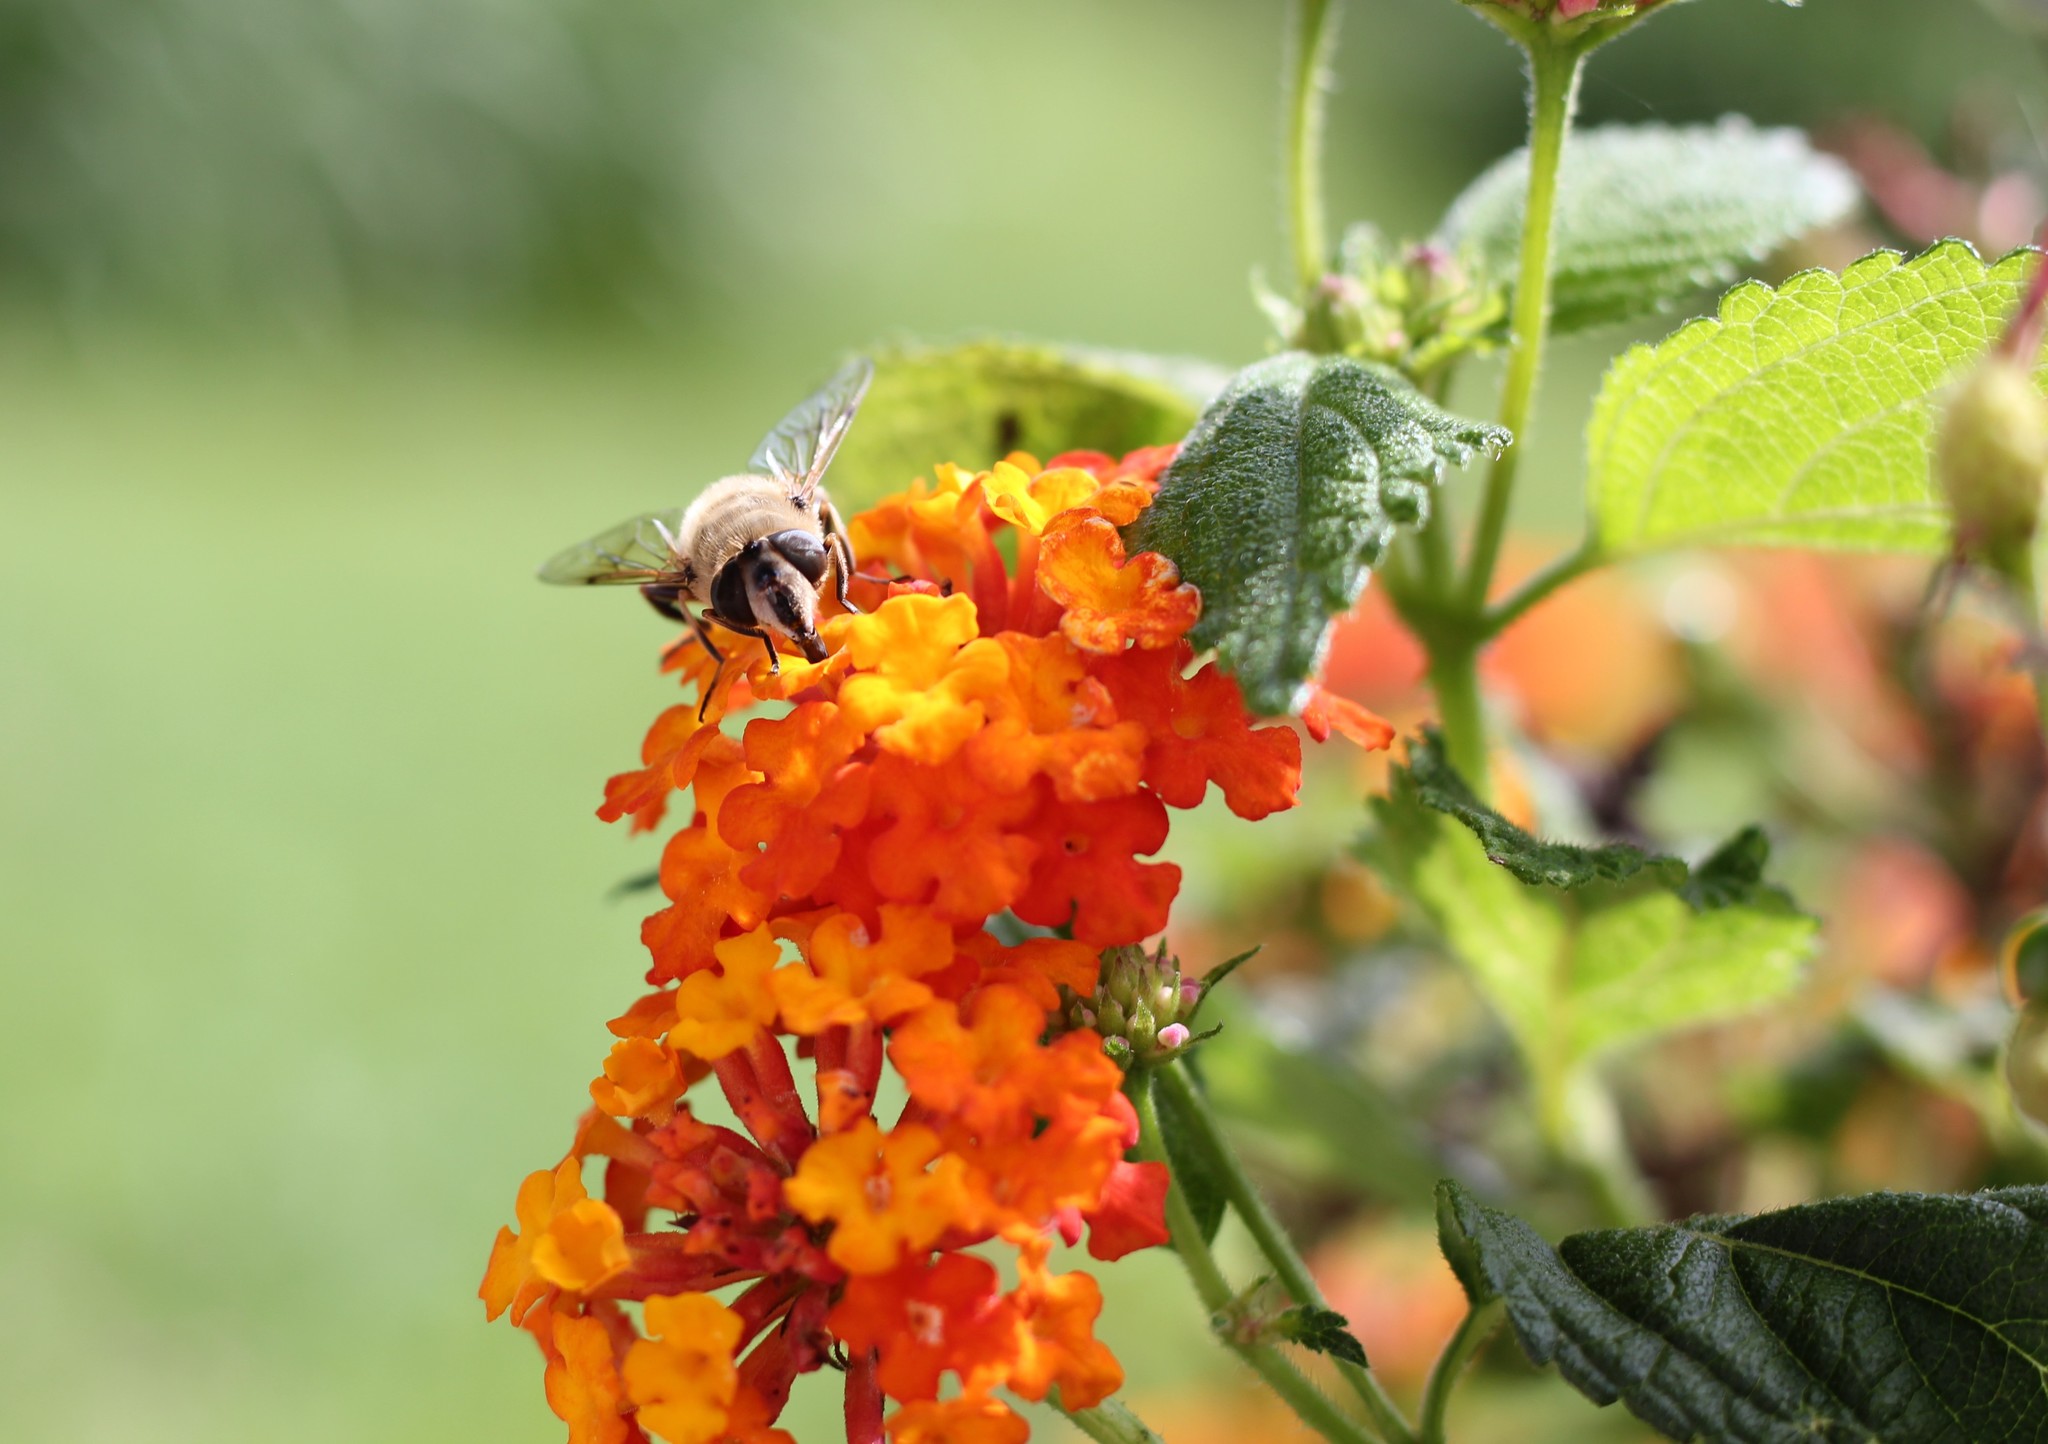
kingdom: Animalia
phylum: Arthropoda
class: Insecta
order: Diptera
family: Syrphidae
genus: Eristalis
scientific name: Eristalis tenax
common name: Drone fly
